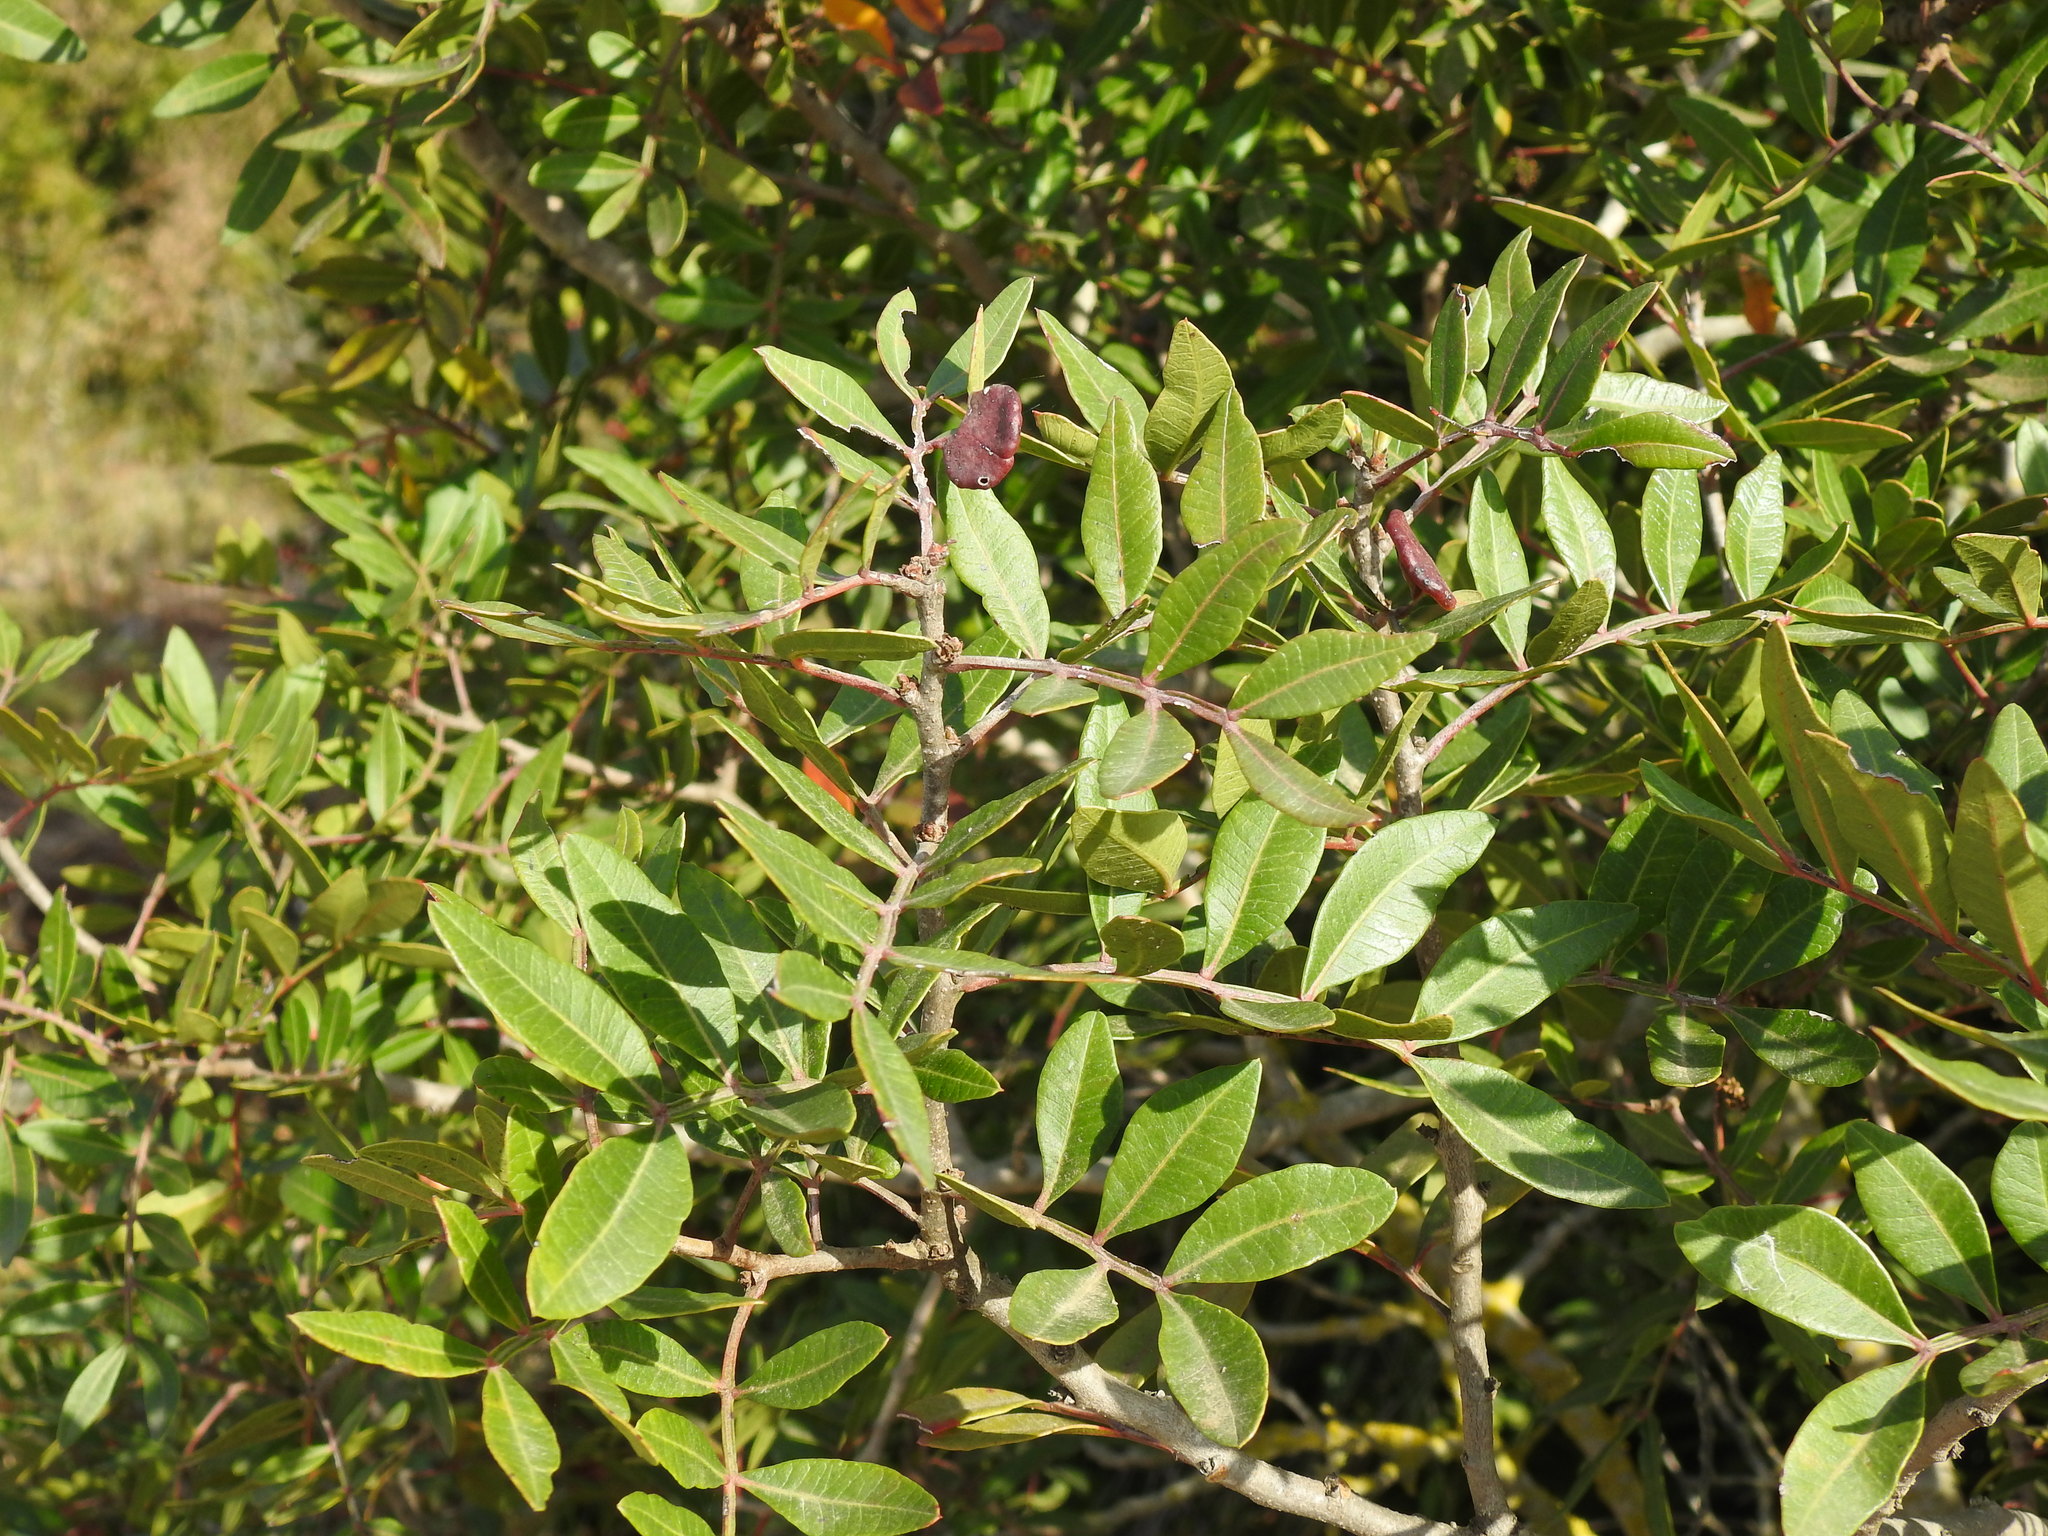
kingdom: Plantae
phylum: Tracheophyta
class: Magnoliopsida
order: Sapindales
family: Anacardiaceae
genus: Pistacia
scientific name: Pistacia lentiscus
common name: Lentisk
